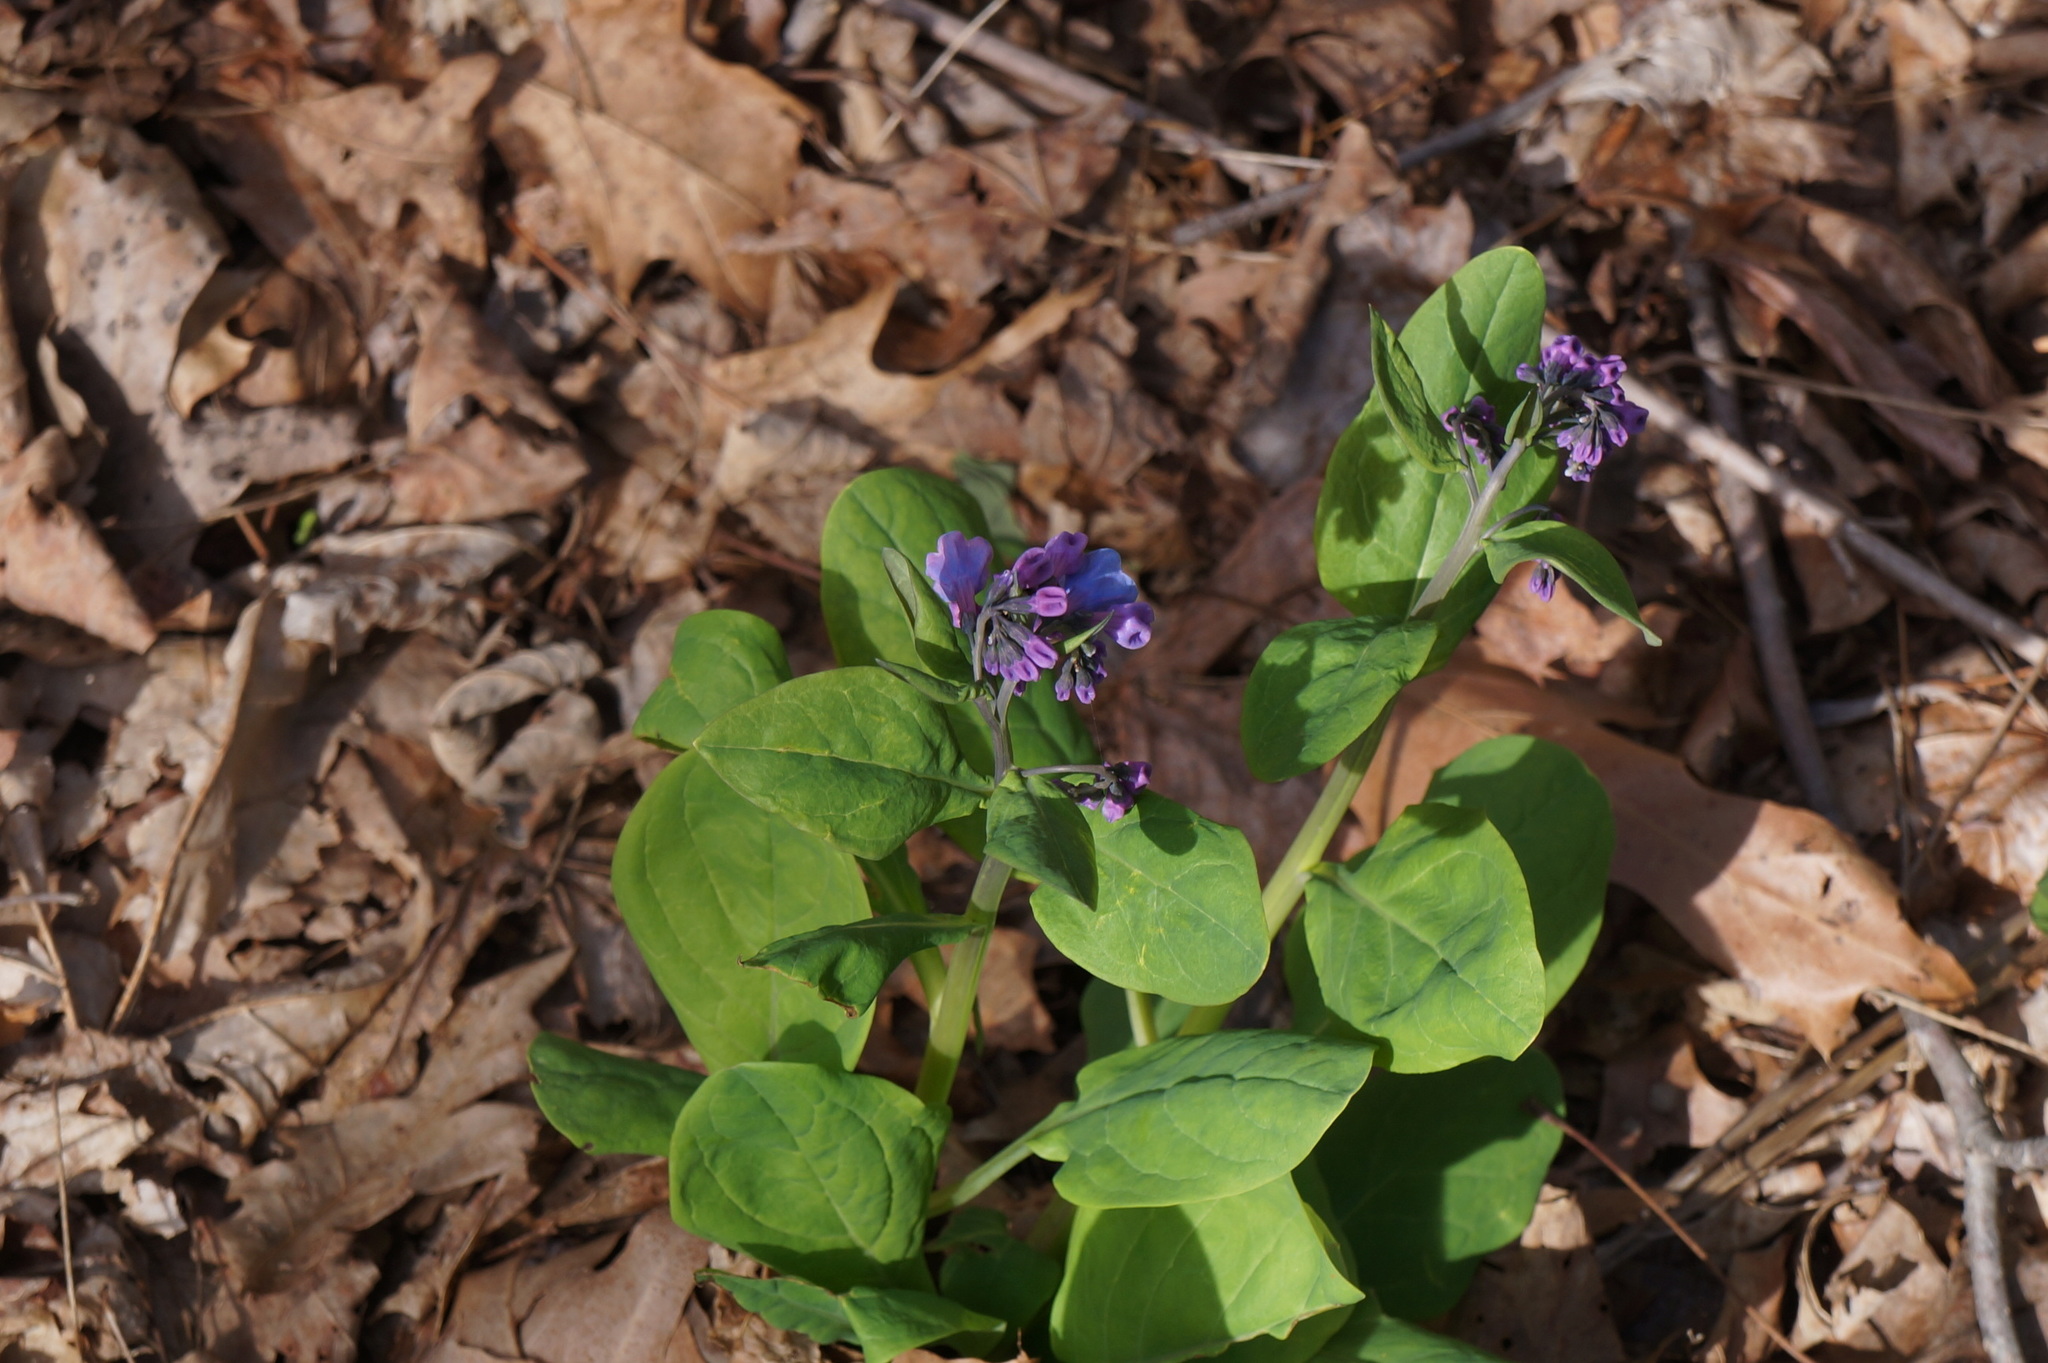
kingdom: Plantae
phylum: Tracheophyta
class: Magnoliopsida
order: Boraginales
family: Boraginaceae
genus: Mertensia
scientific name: Mertensia virginica
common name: Virginia bluebells
